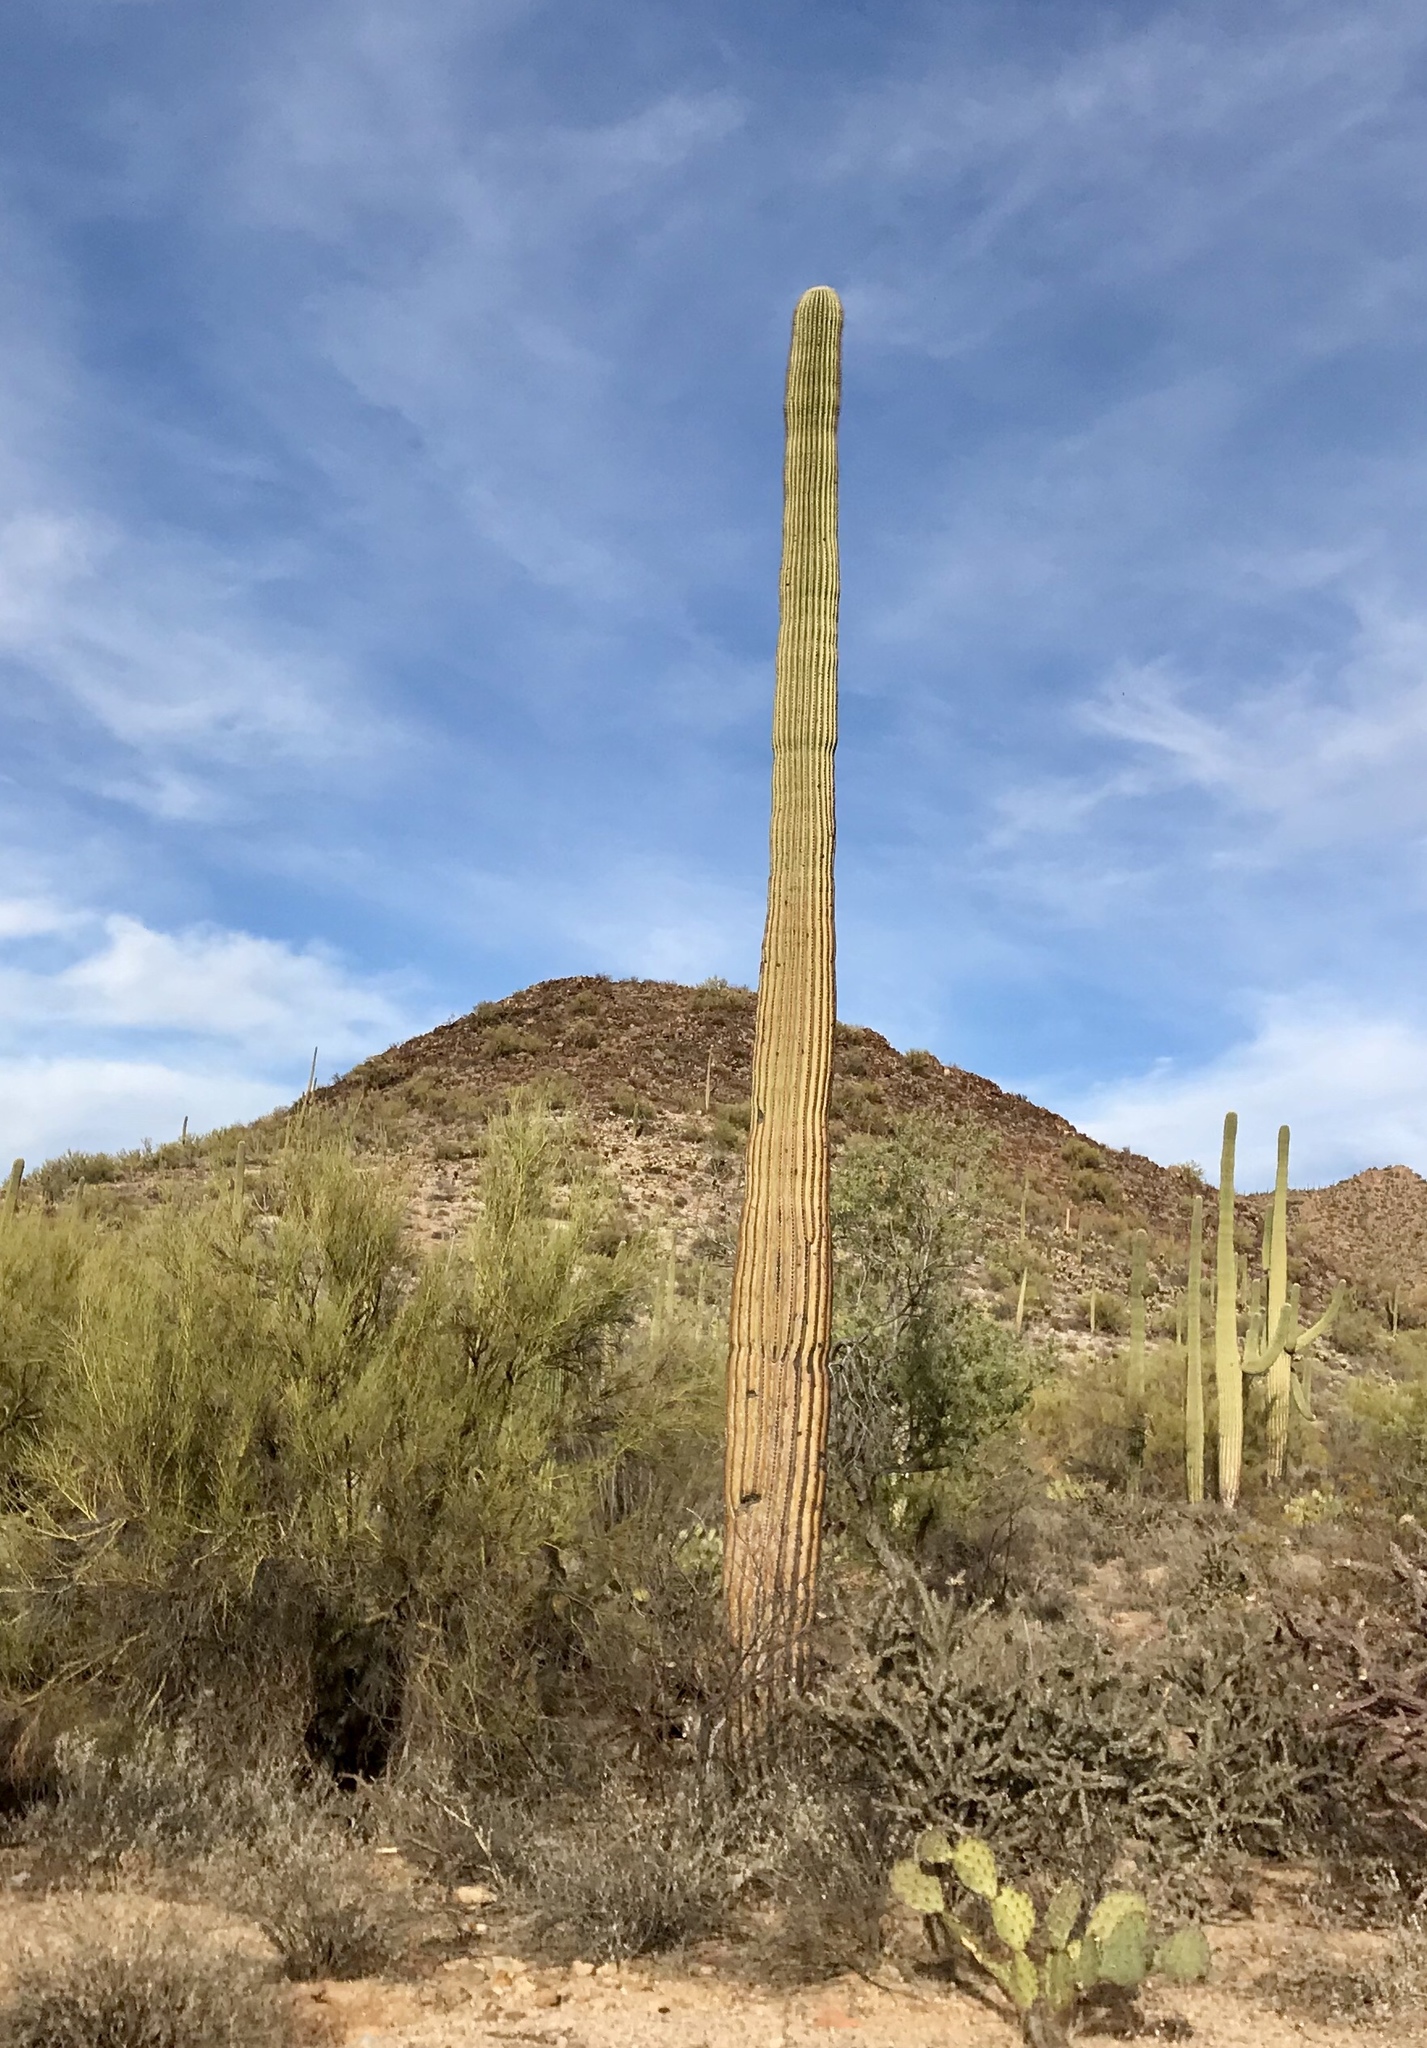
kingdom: Plantae
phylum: Tracheophyta
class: Magnoliopsida
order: Caryophyllales
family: Cactaceae
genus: Carnegiea
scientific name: Carnegiea gigantea
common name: Saguaro
